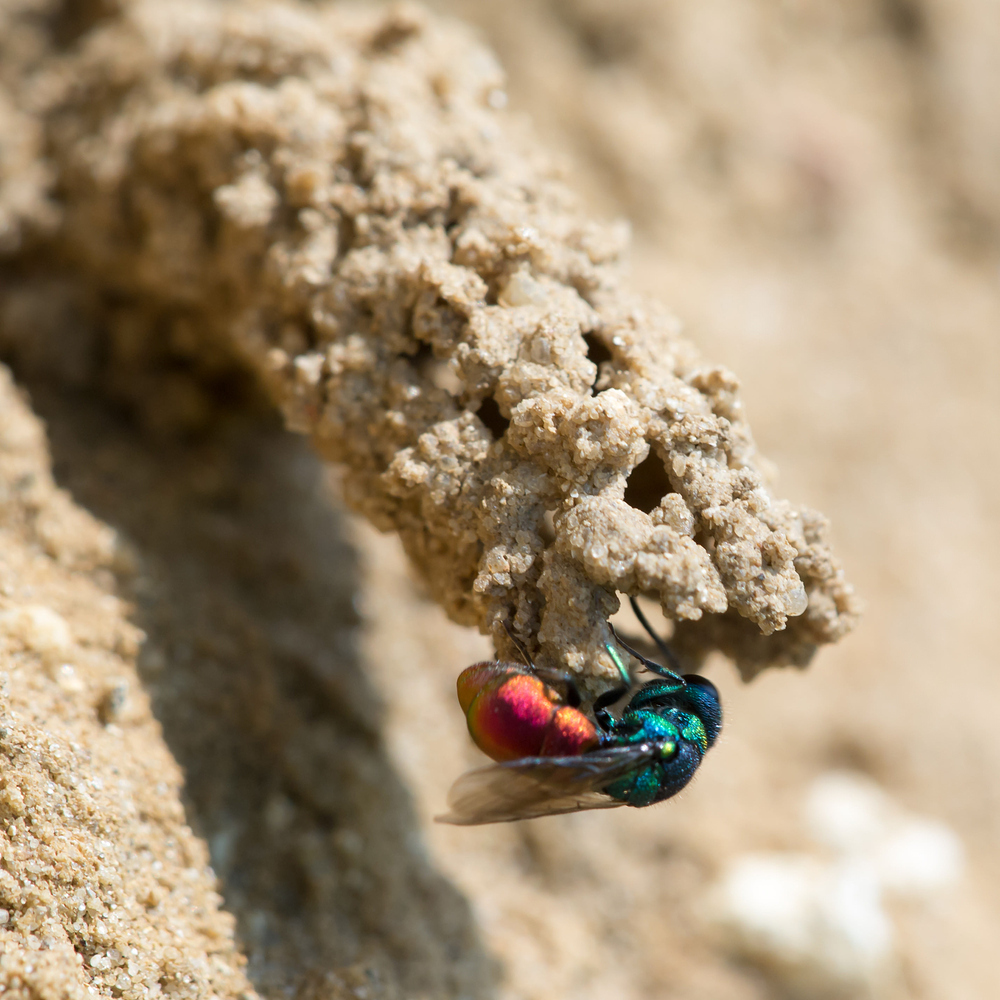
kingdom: Animalia
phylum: Arthropoda
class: Insecta
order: Hymenoptera
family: Chrysididae
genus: Pseudospinolia
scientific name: Pseudospinolia neglecta
